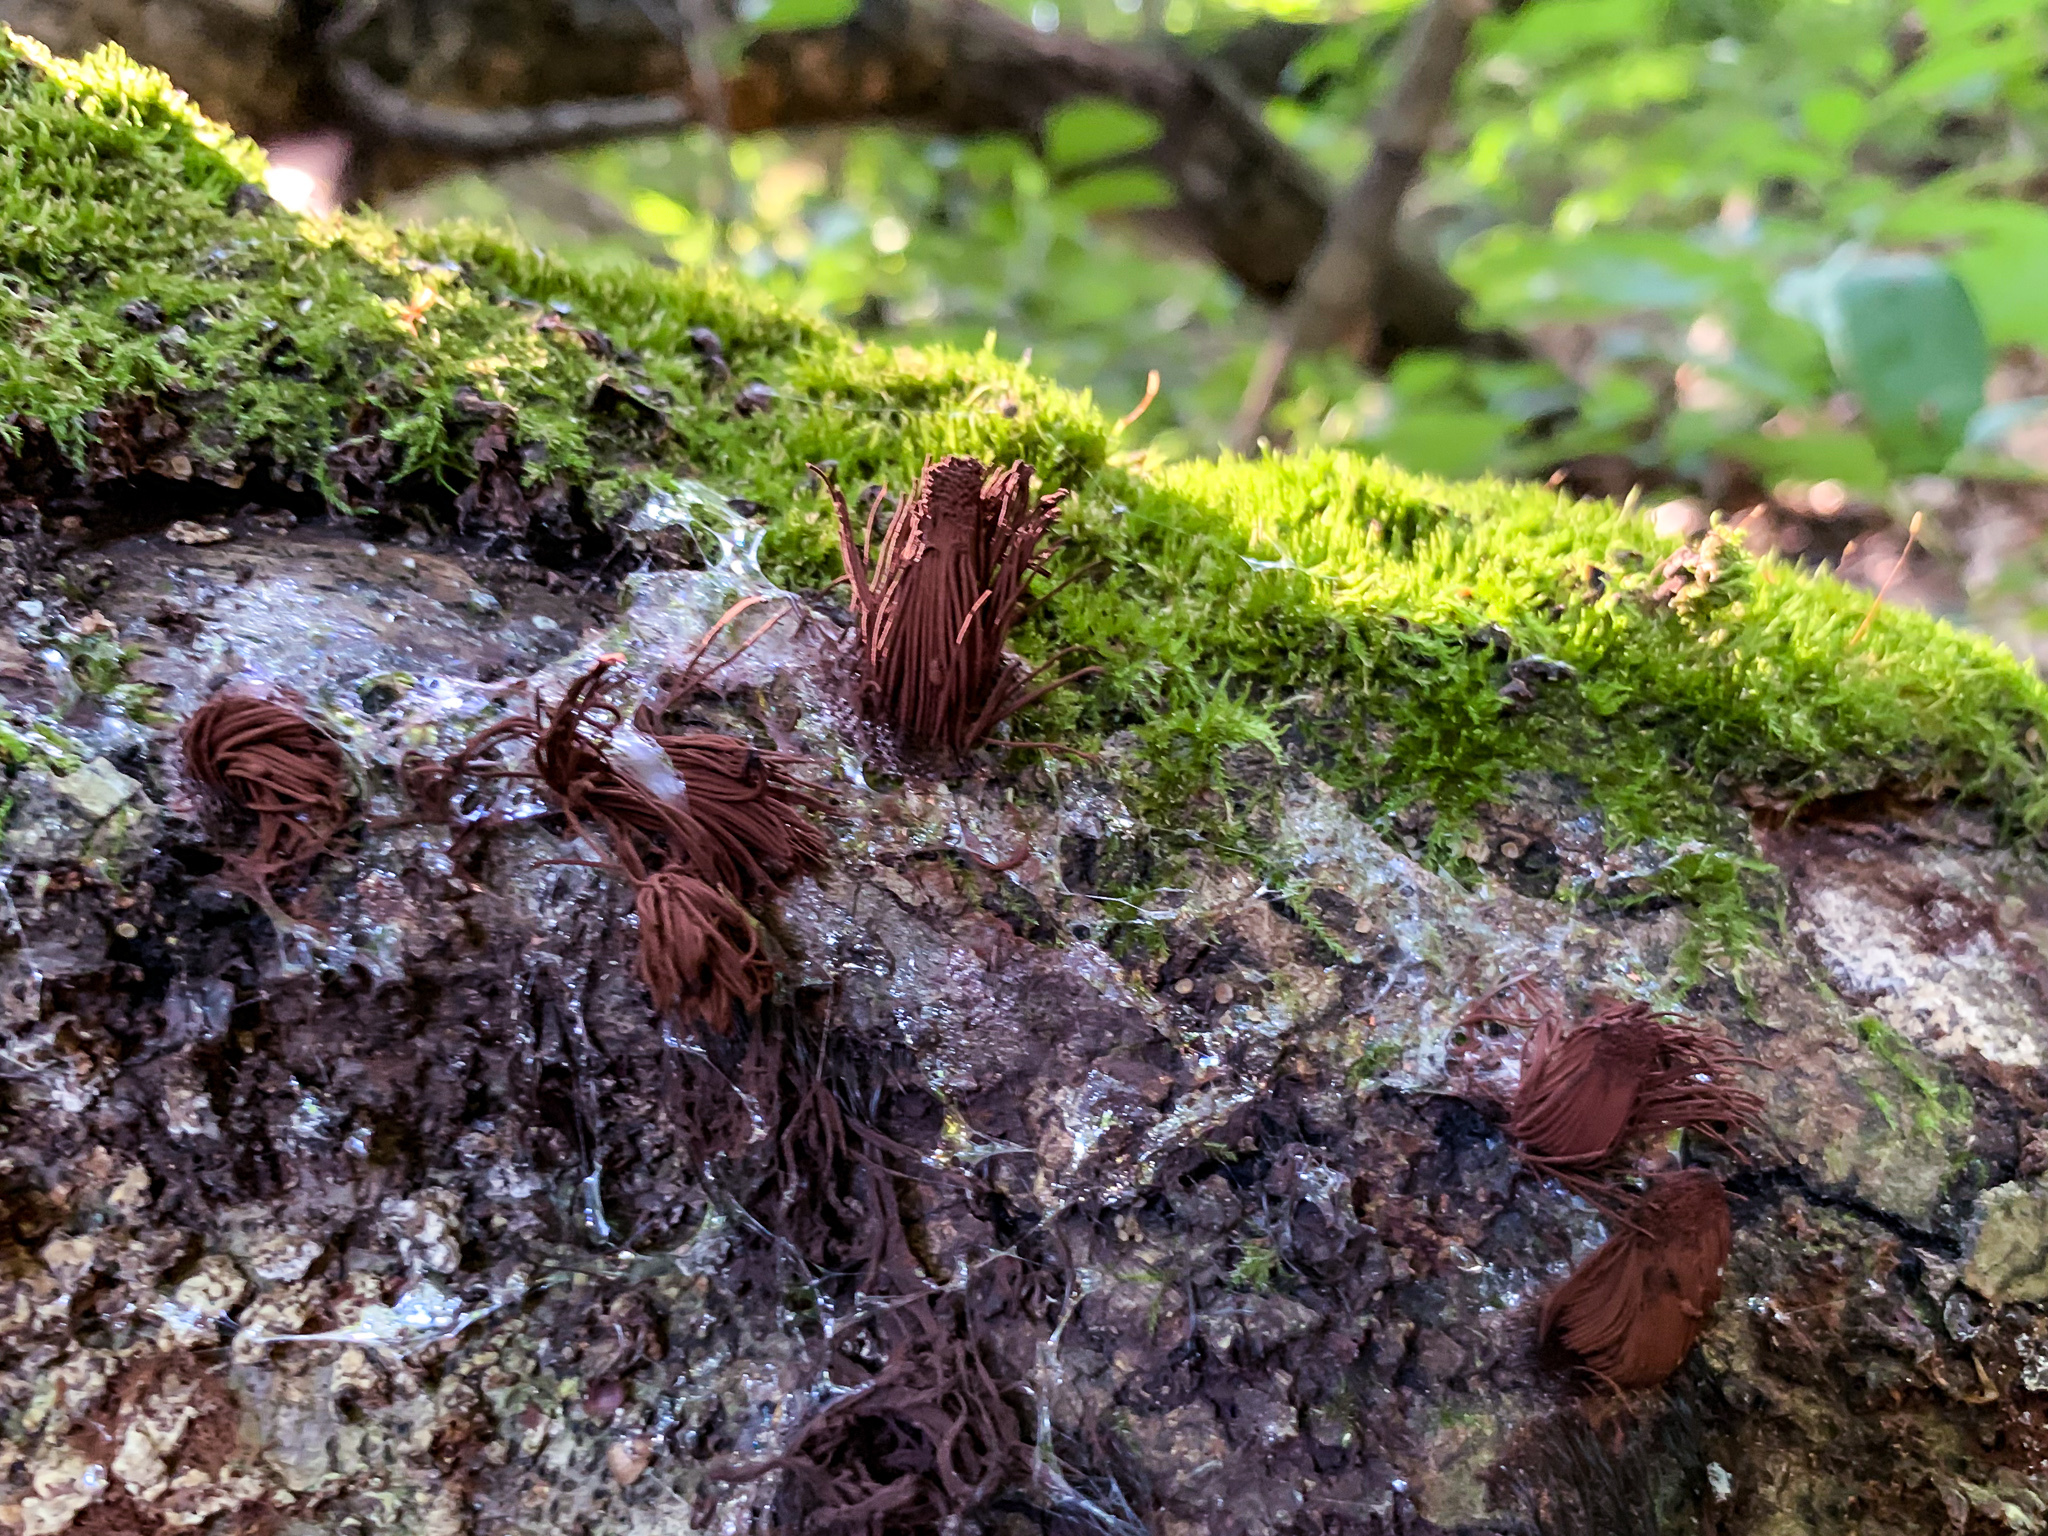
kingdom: Protozoa
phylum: Mycetozoa
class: Myxomycetes
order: Stemonitidales
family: Stemonitidaceae
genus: Stemonitis
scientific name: Stemonitis splendens
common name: Chocolate tube slime
